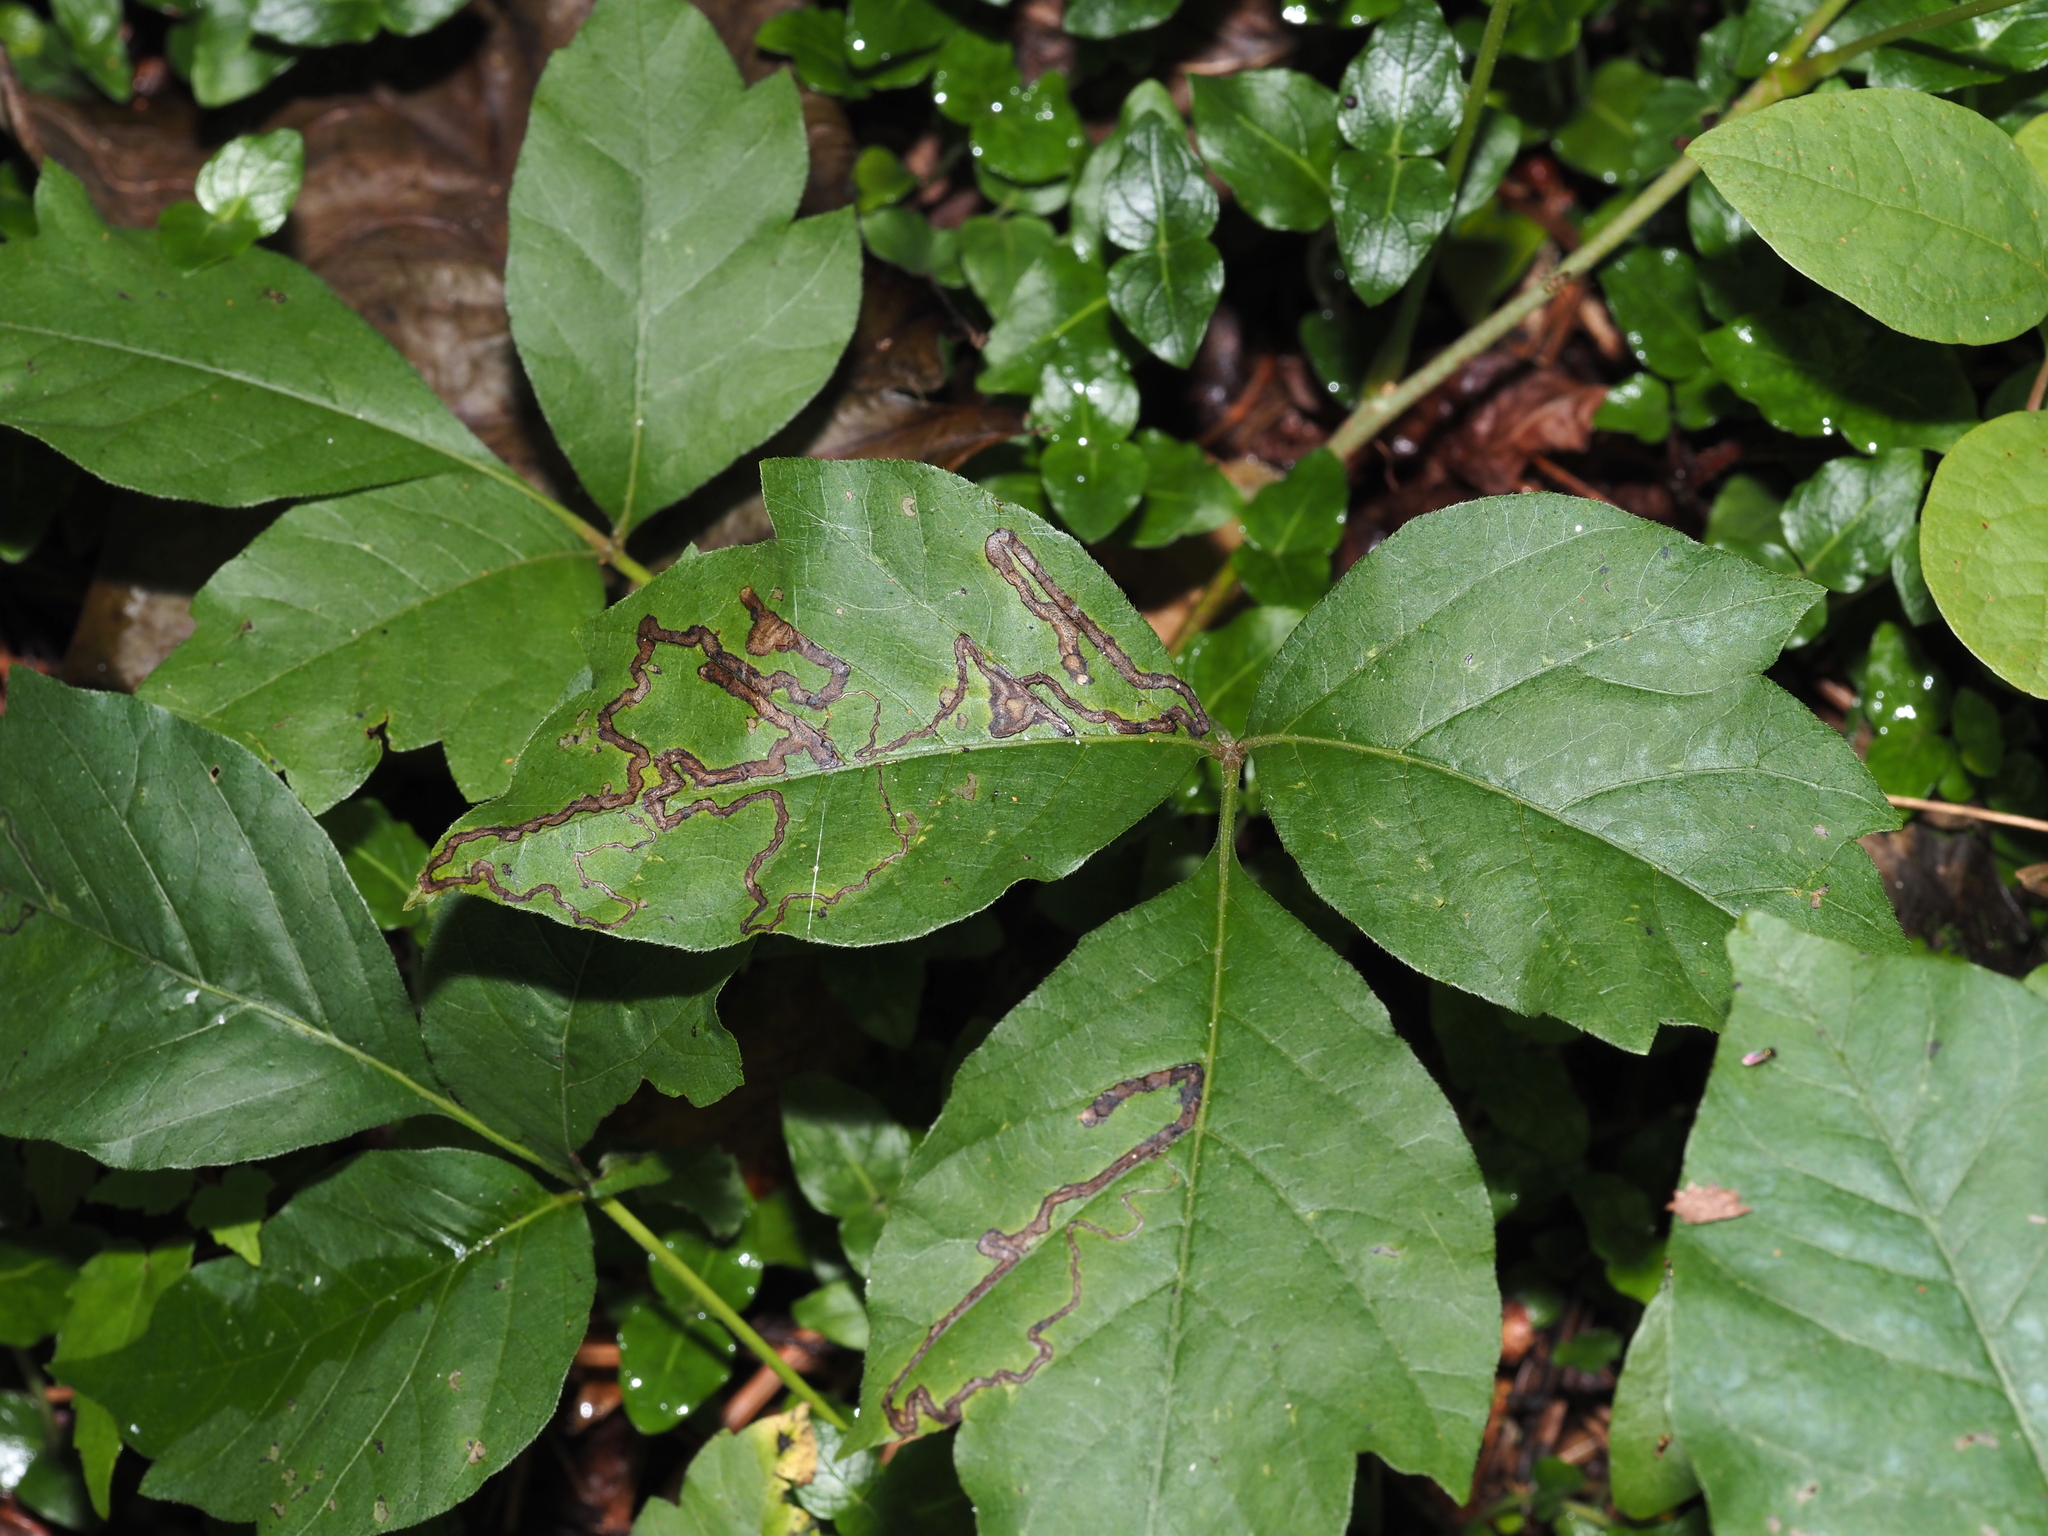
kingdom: Animalia
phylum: Arthropoda
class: Insecta
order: Lepidoptera
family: Nepticulidae
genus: Stigmella
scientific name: Stigmella rhoifoliella
